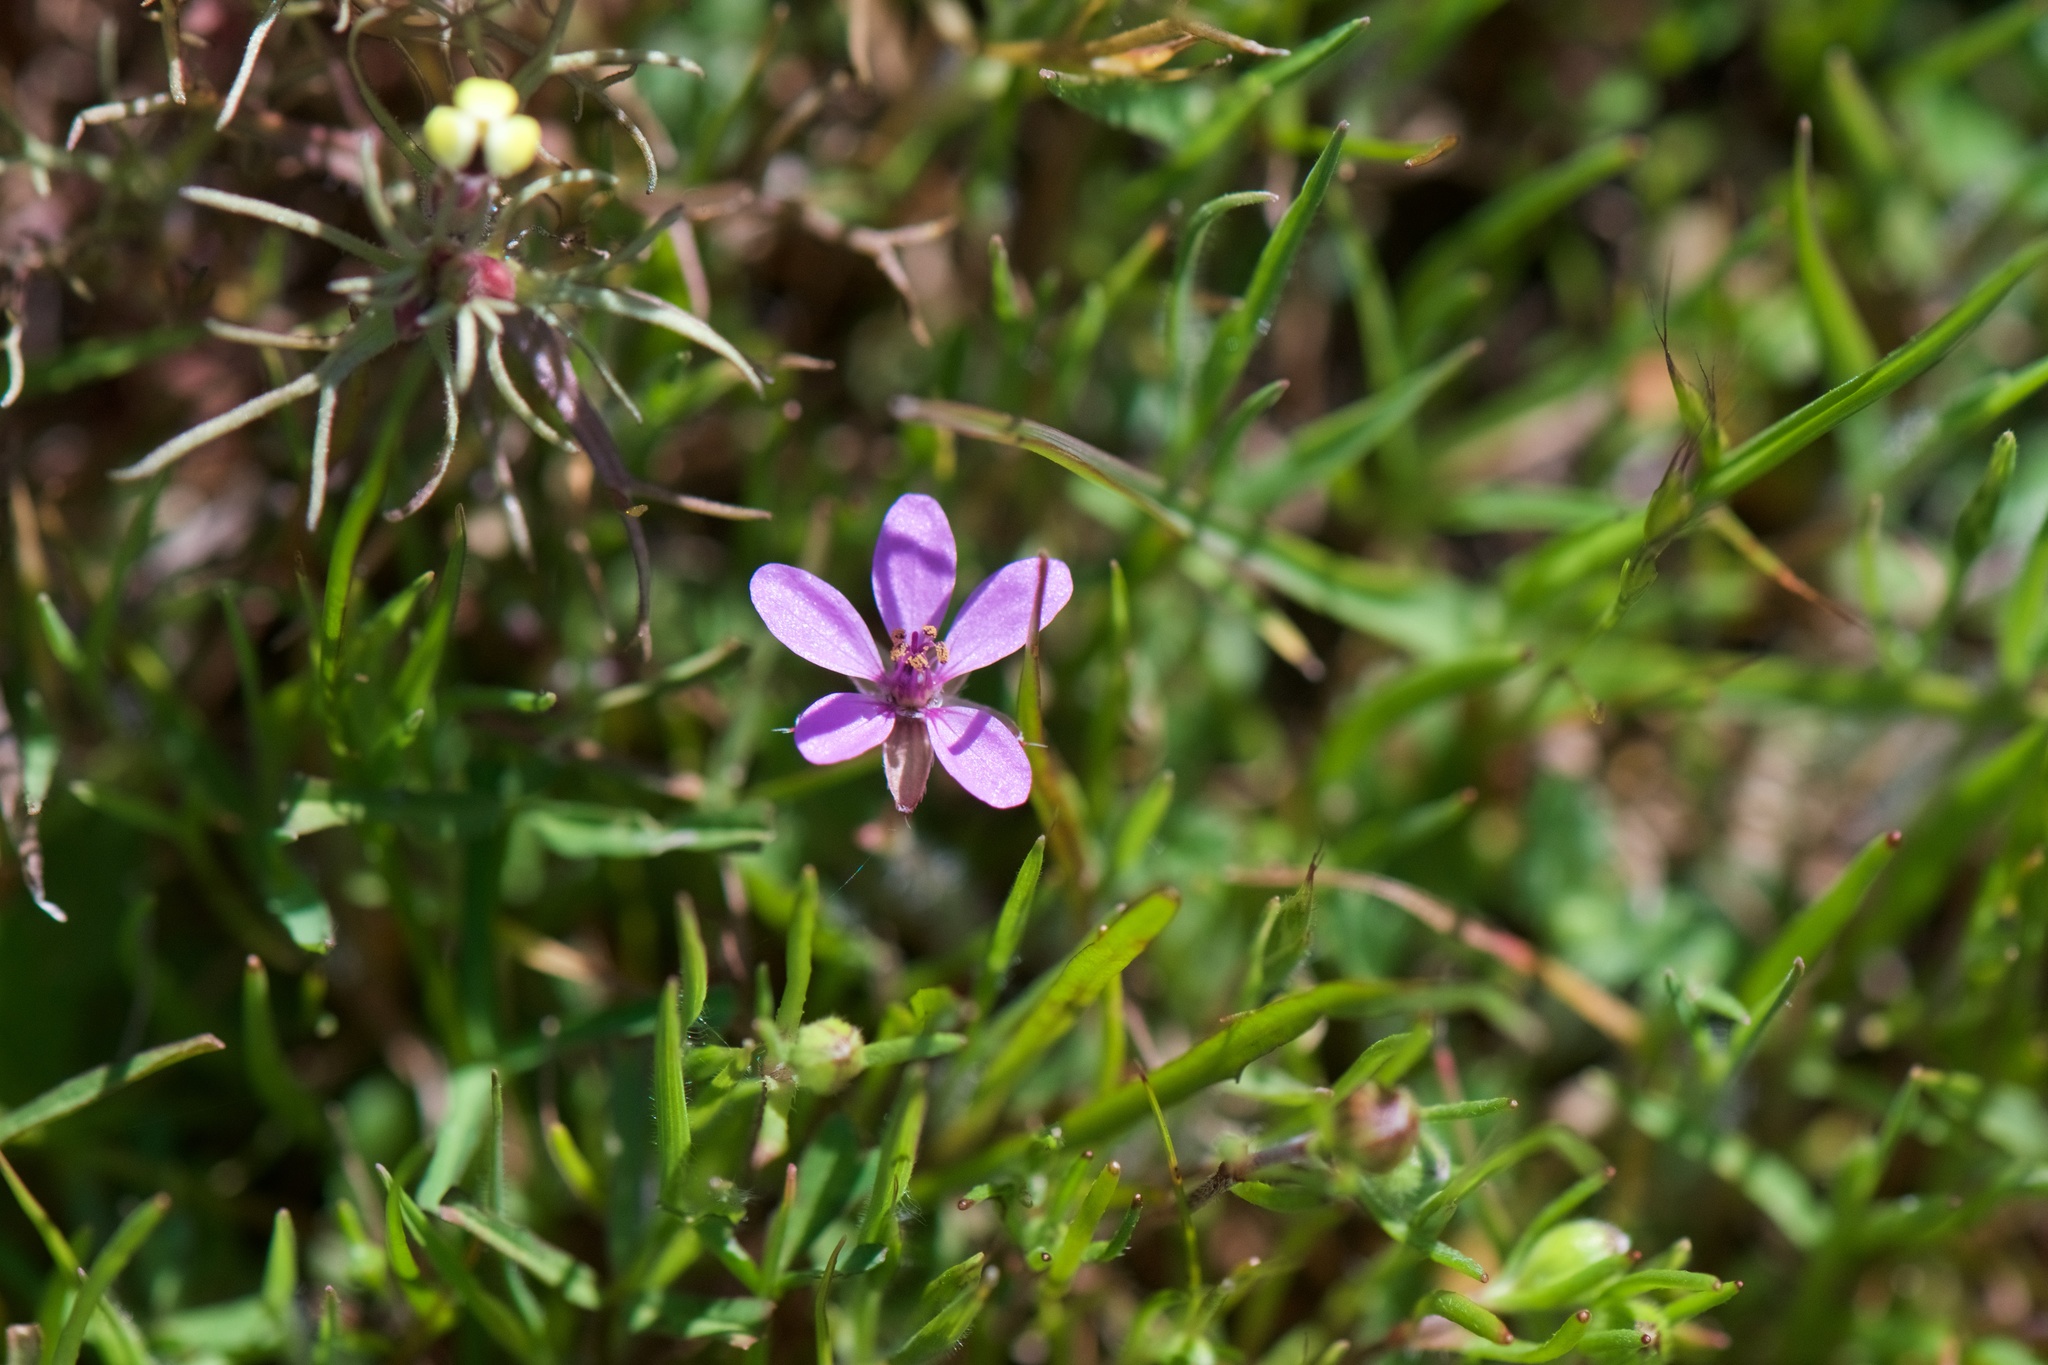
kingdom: Plantae
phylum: Tracheophyta
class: Magnoliopsida
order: Geraniales
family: Geraniaceae
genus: Erodium
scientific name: Erodium cicutarium
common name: Common stork's-bill
